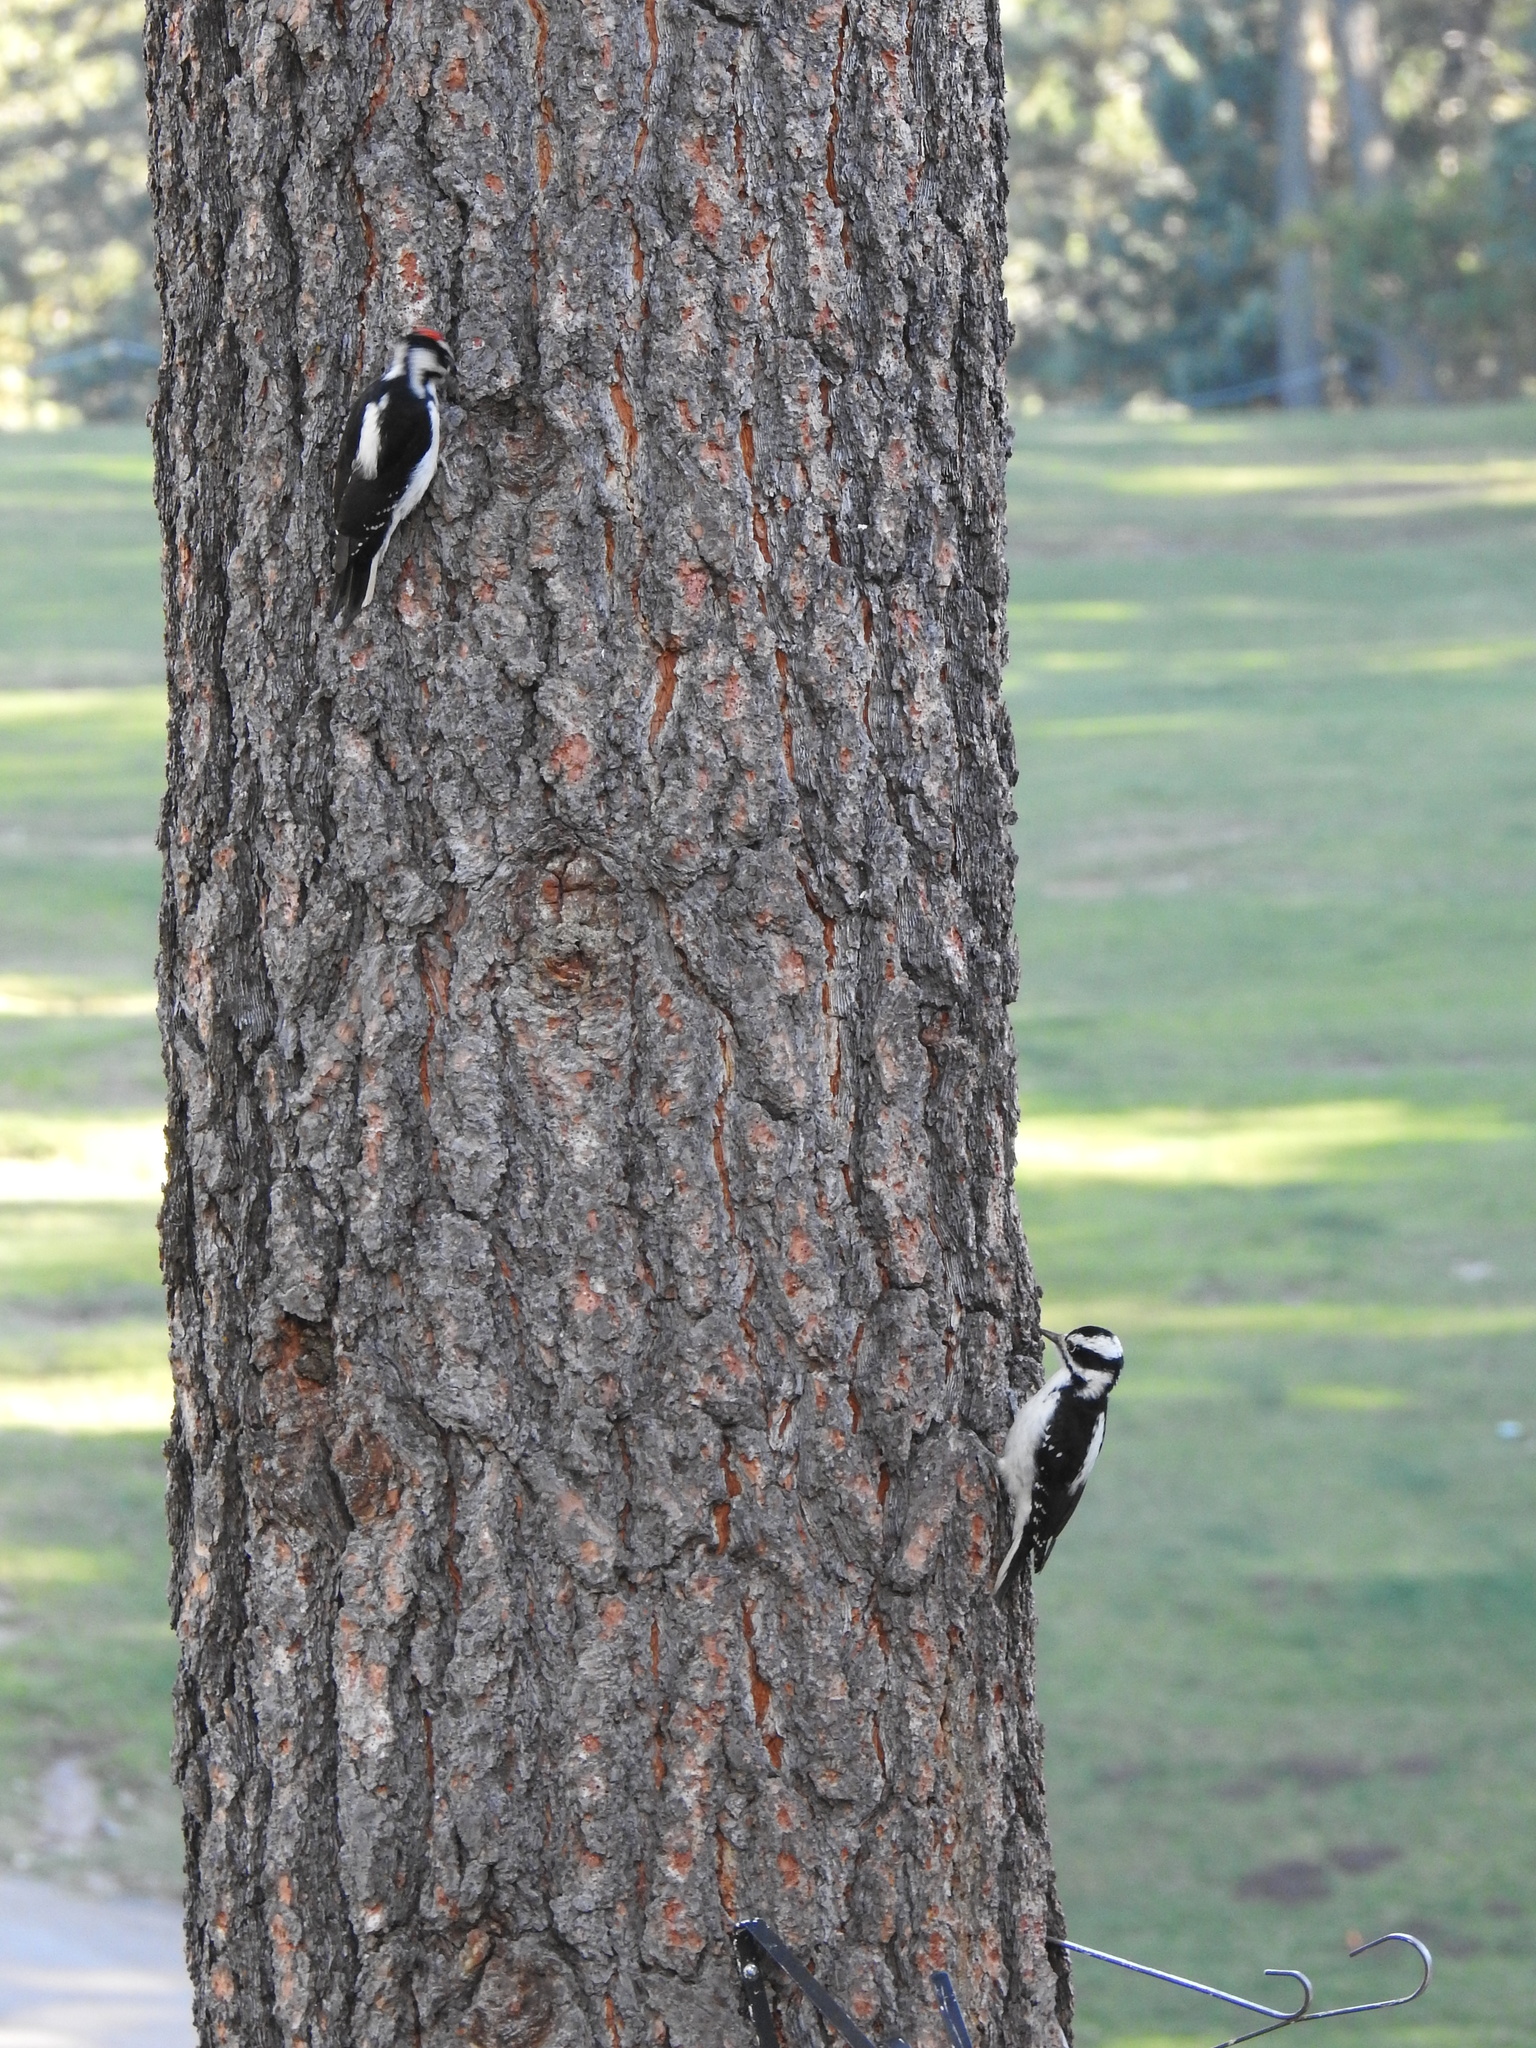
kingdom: Animalia
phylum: Chordata
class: Aves
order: Piciformes
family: Picidae
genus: Leuconotopicus
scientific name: Leuconotopicus villosus
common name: Hairy woodpecker
